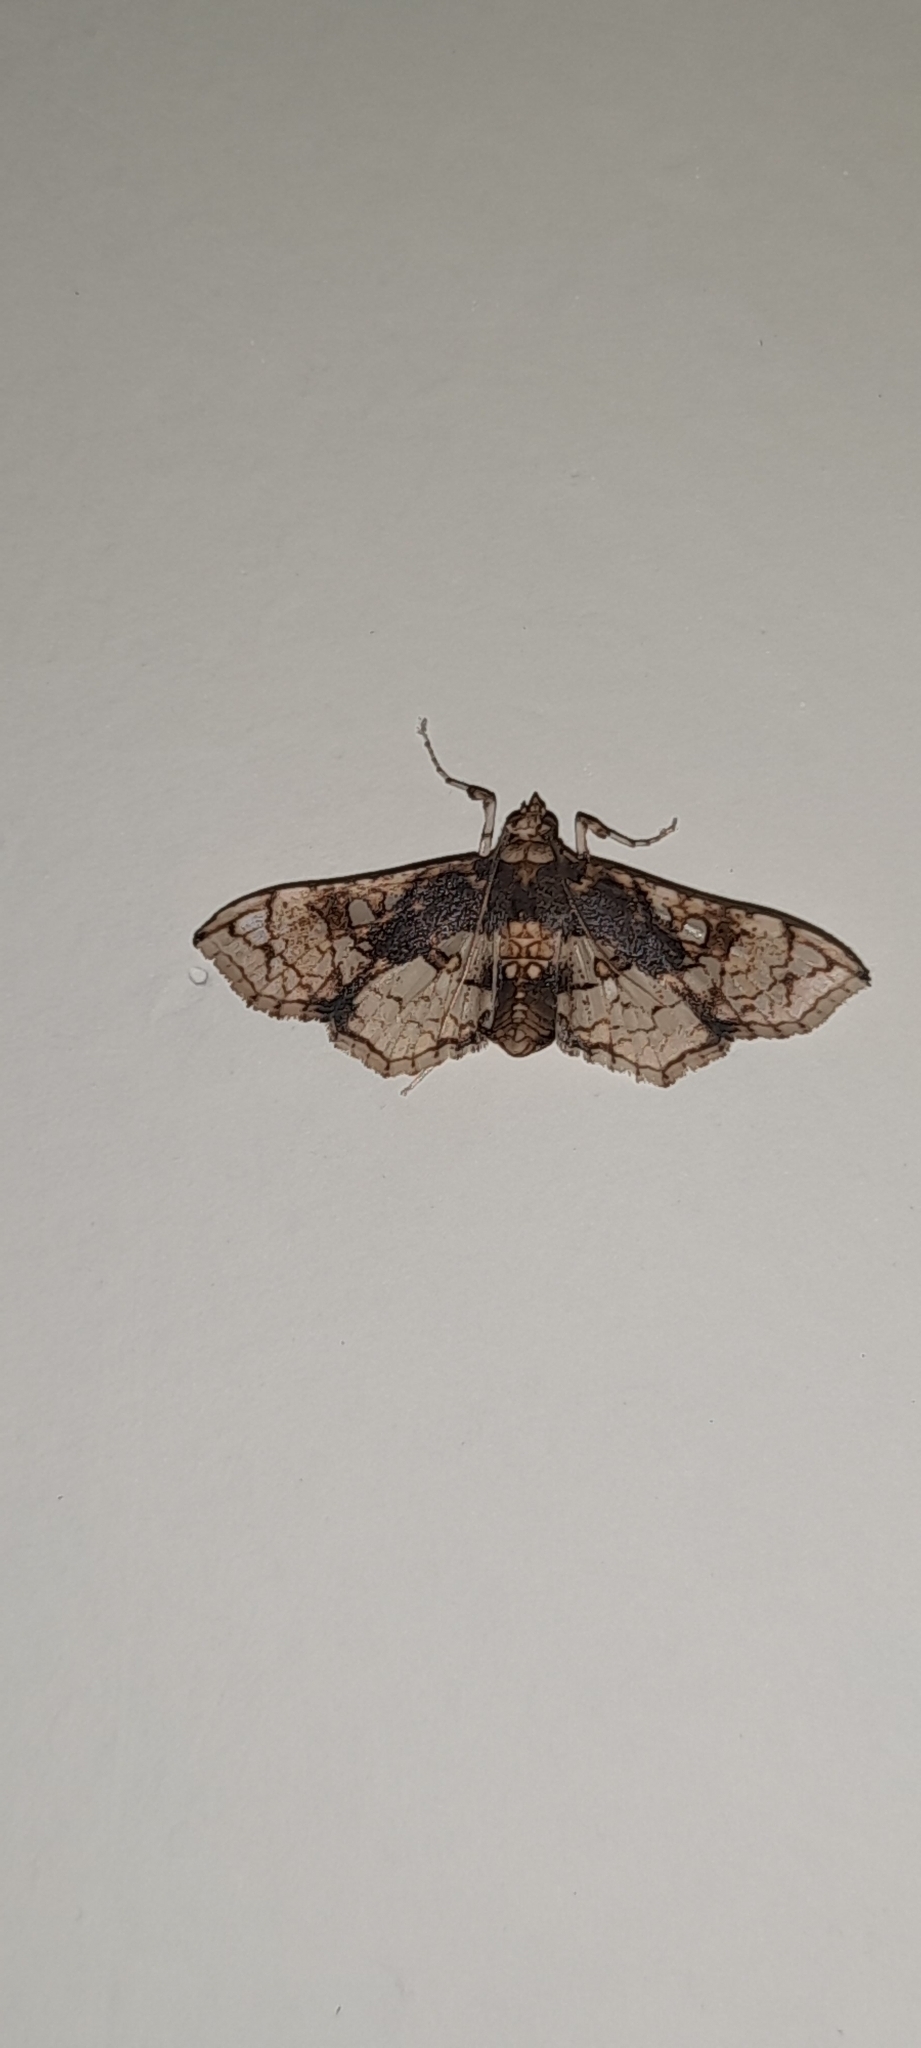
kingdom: Animalia
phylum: Arthropoda
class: Insecta
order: Lepidoptera
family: Crambidae
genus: Omphisa
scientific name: Omphisa anastomosalis
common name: Sweetpotato vineborer
